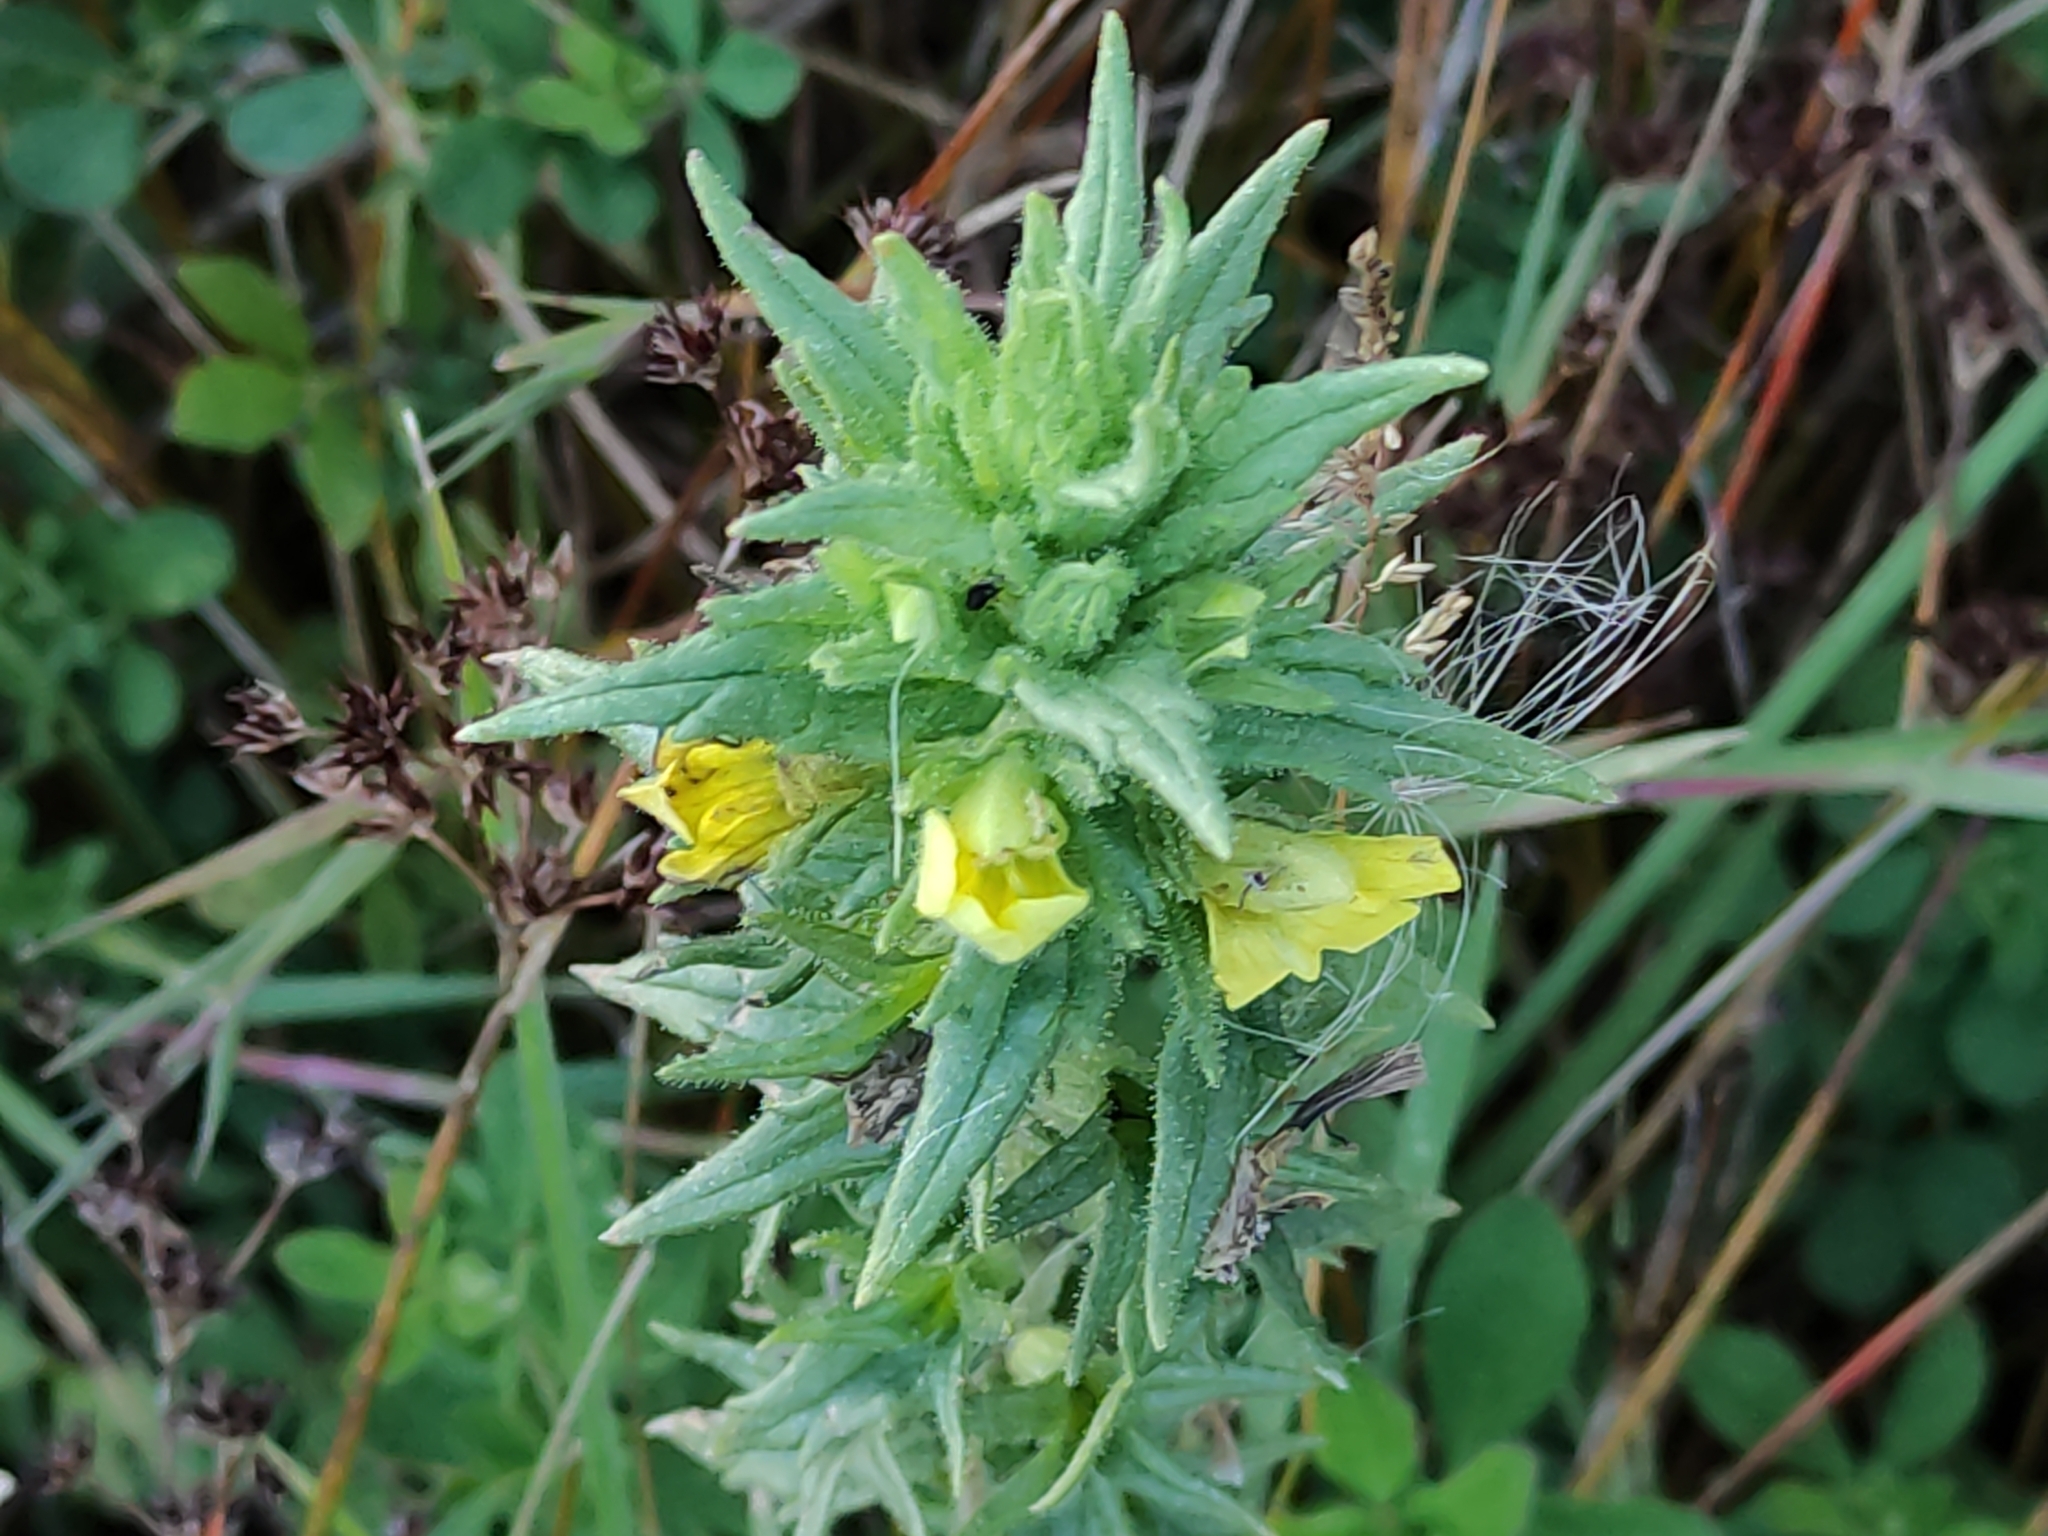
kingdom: Plantae
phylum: Tracheophyta
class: Magnoliopsida
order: Lamiales
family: Orobanchaceae
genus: Bellardia
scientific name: Bellardia viscosa
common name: Sticky parentucellia
